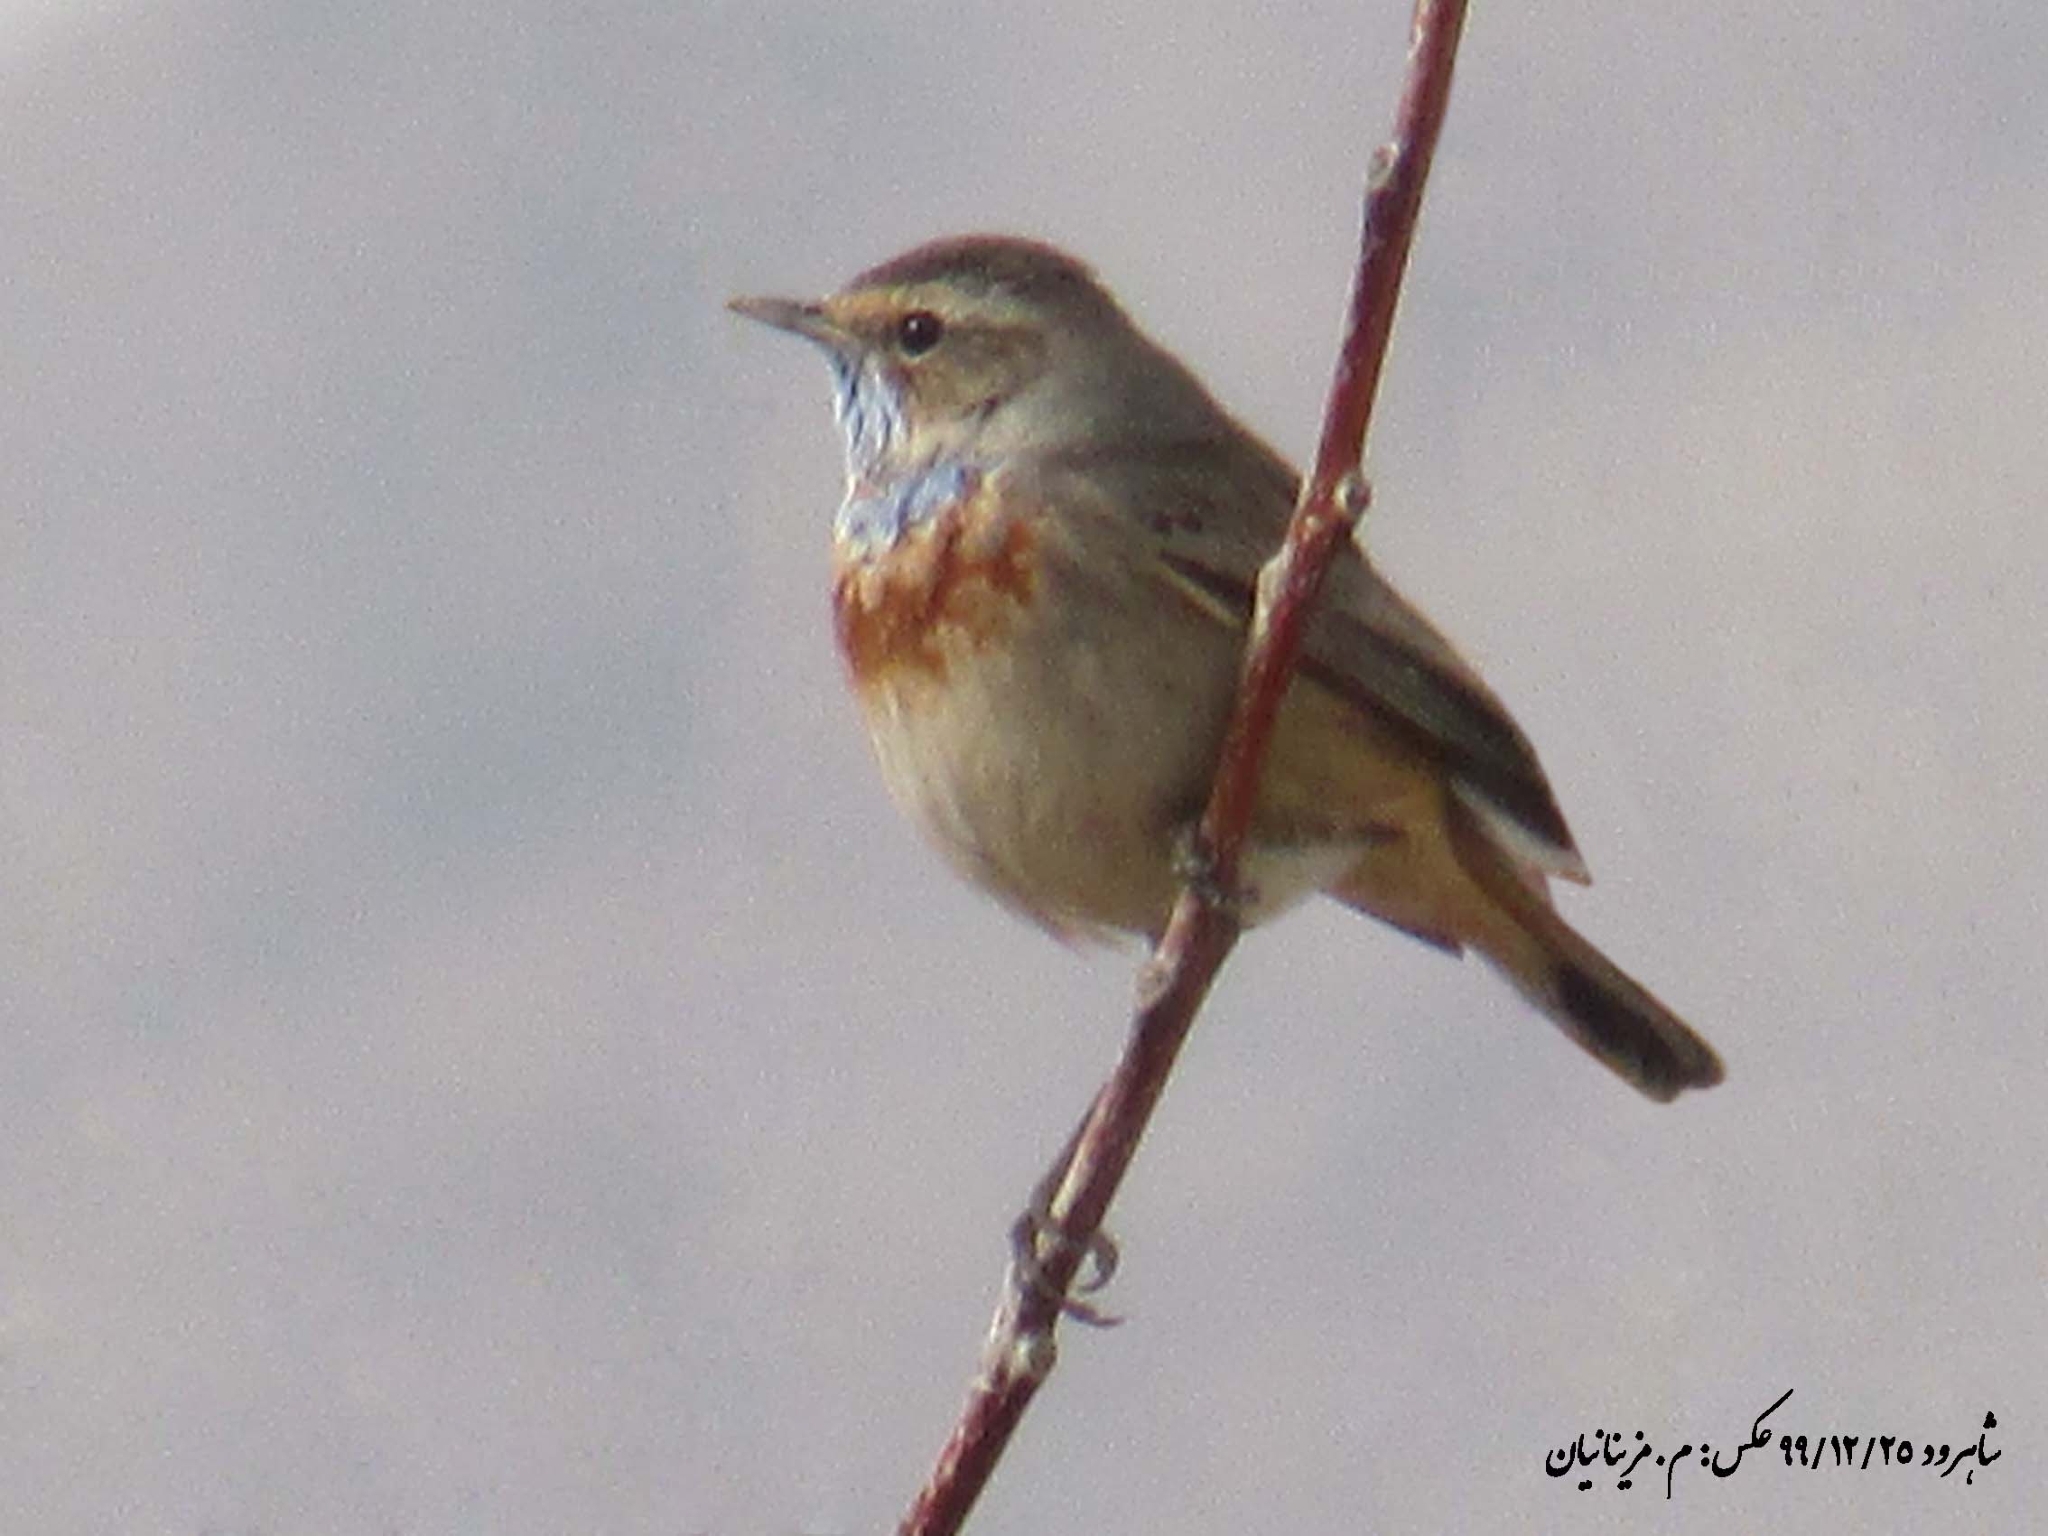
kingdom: Animalia
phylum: Chordata
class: Aves
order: Passeriformes
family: Muscicapidae
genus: Luscinia
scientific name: Luscinia svecica
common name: Bluethroat
